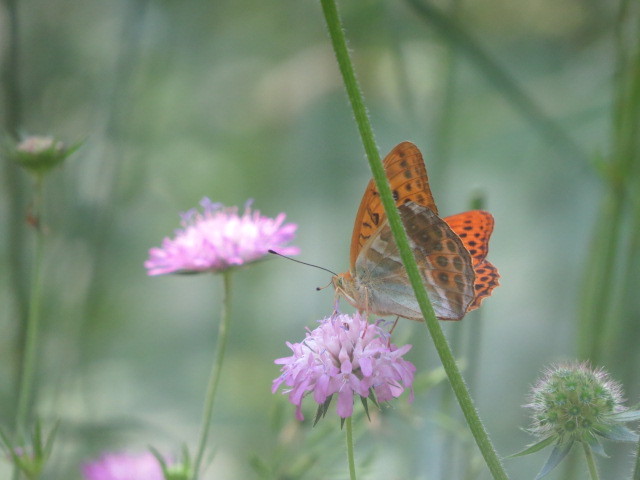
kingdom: Animalia
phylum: Arthropoda
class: Insecta
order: Lepidoptera
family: Nymphalidae
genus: Argynnis
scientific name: Argynnis paphia
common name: Silver-washed fritillary
